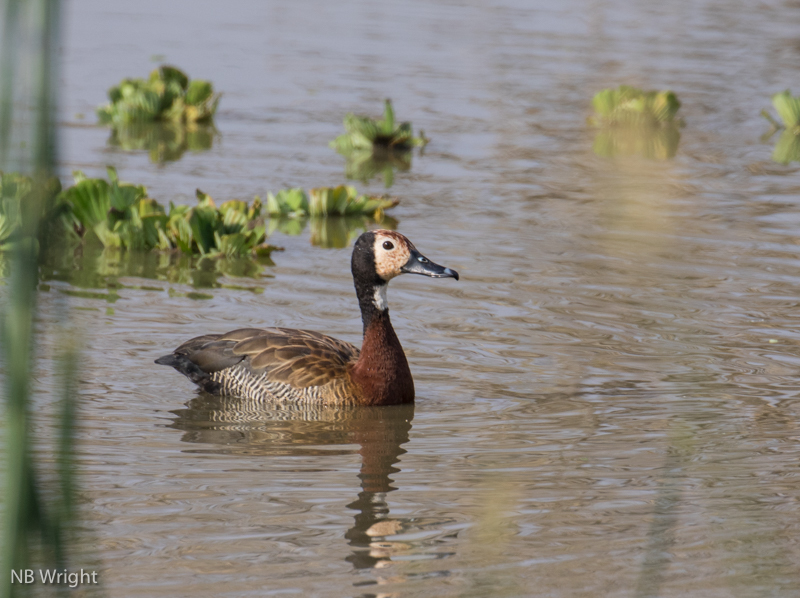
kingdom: Animalia
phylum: Chordata
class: Aves
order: Anseriformes
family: Anatidae
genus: Dendrocygna
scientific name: Dendrocygna viduata
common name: White-faced whistling duck
